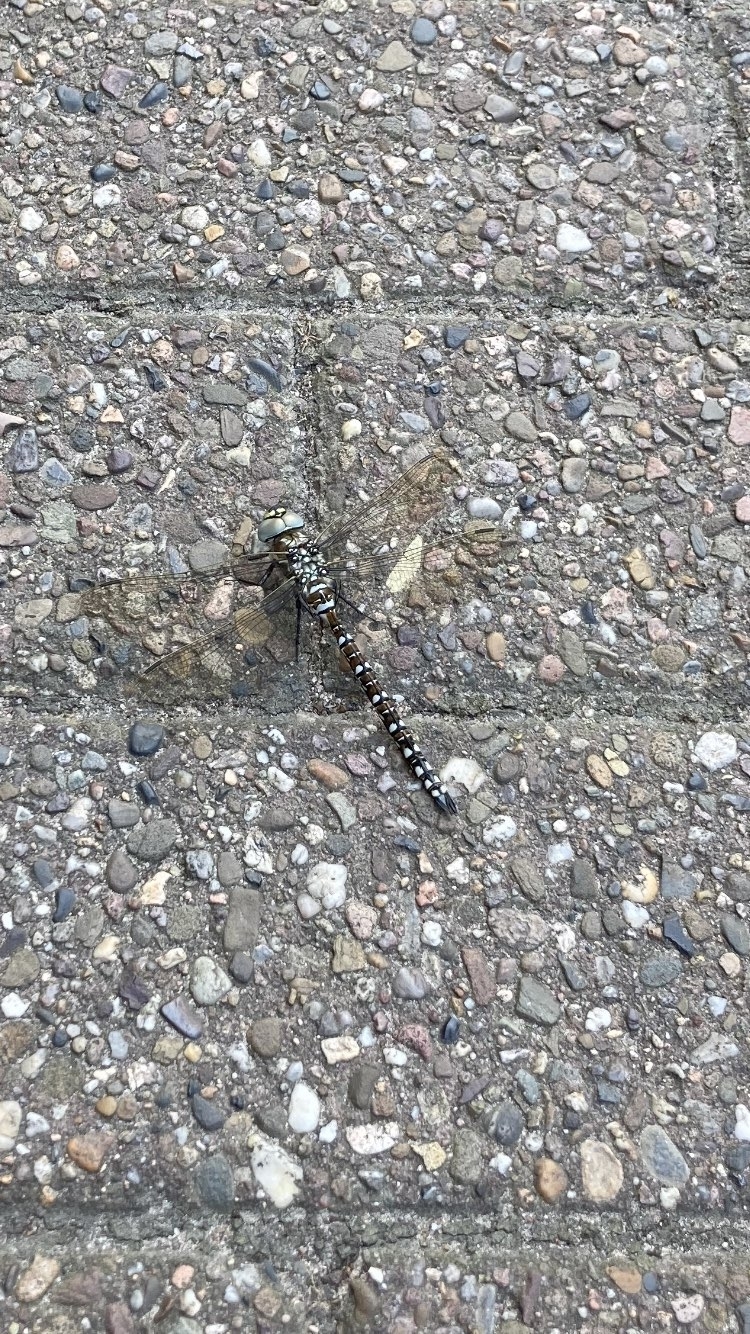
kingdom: Animalia
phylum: Arthropoda
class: Insecta
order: Odonata
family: Aeshnidae
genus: Aeshna
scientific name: Aeshna juncea
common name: Moorland hawker
